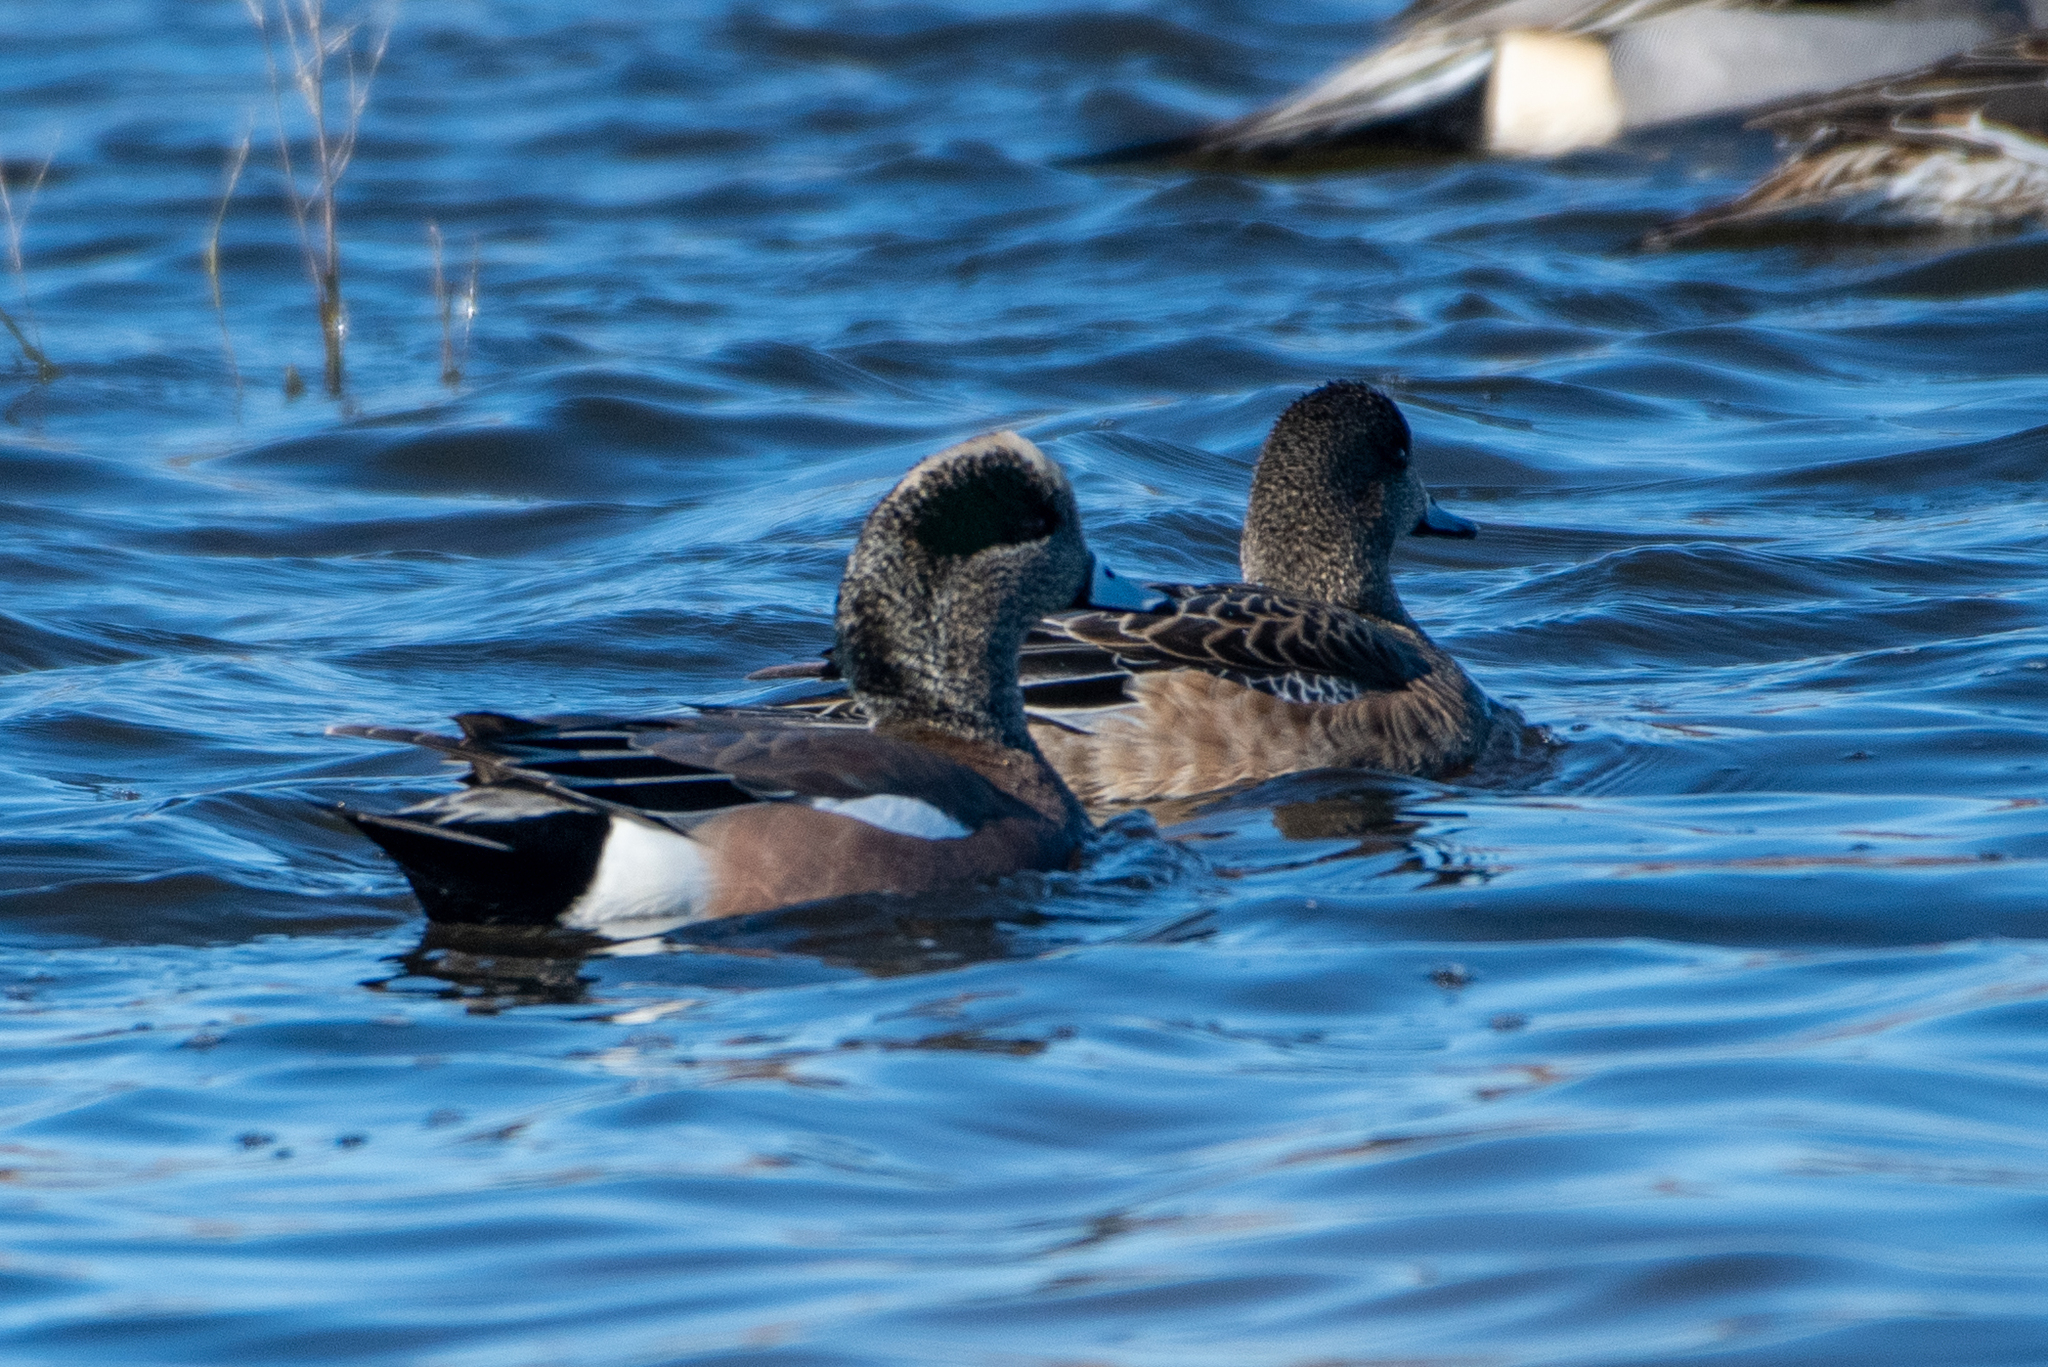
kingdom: Animalia
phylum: Chordata
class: Aves
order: Anseriformes
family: Anatidae
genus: Mareca
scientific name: Mareca americana
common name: American wigeon
